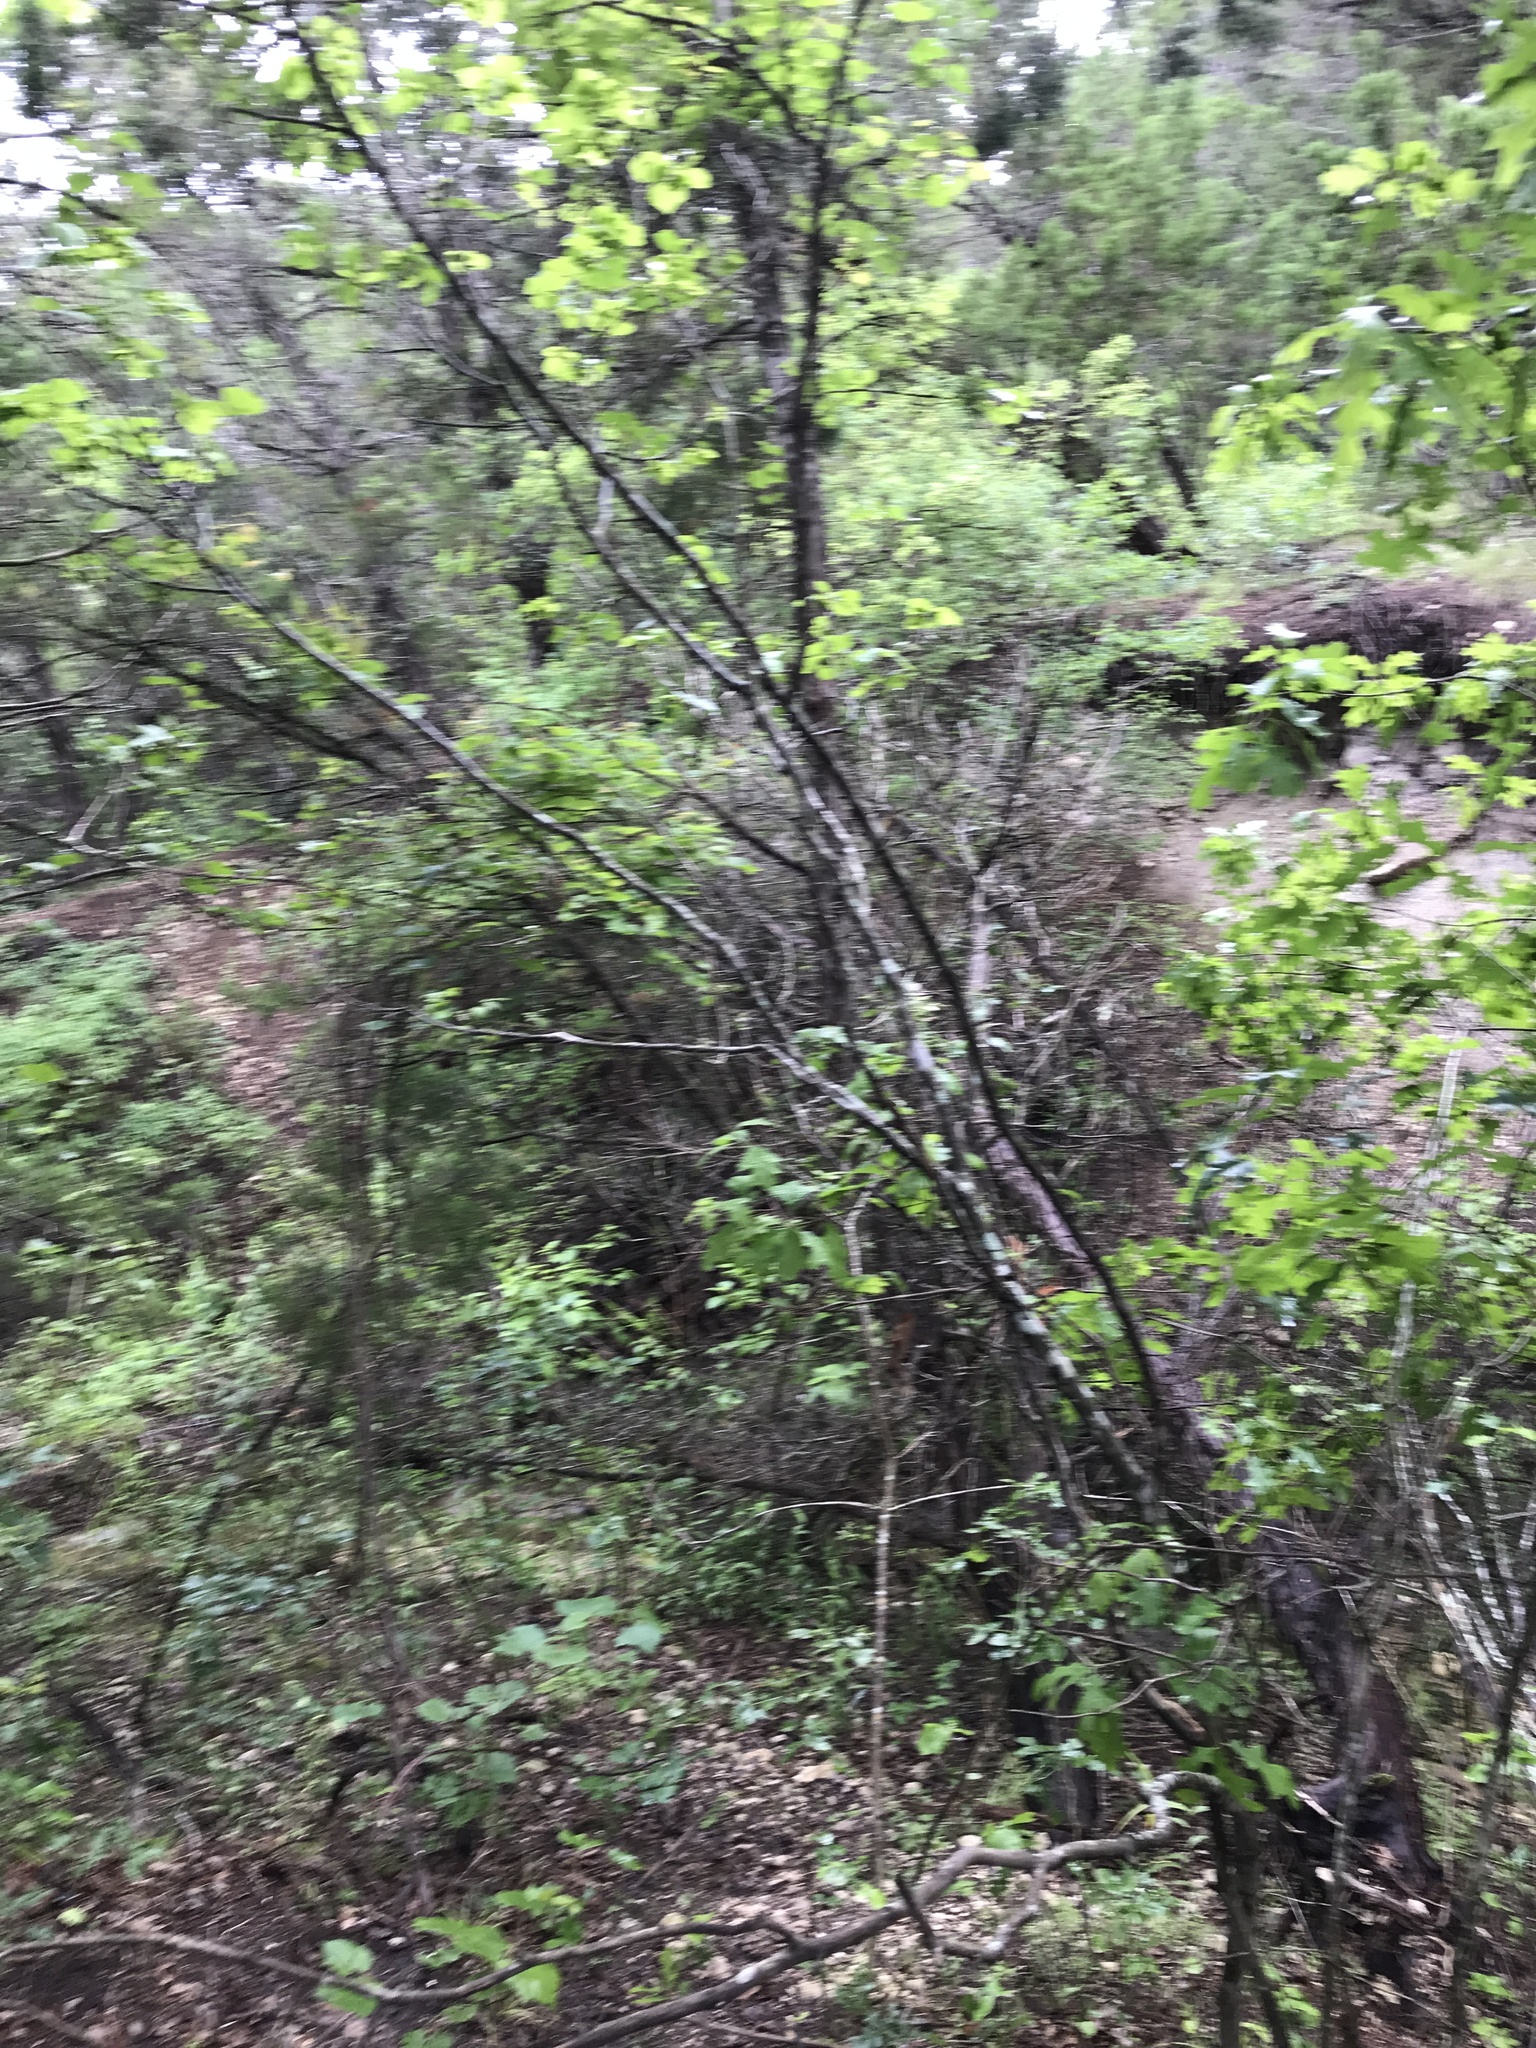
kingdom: Plantae
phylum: Tracheophyta
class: Magnoliopsida
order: Ericales
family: Styracaceae
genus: Styrax
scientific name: Styrax platanifolius
